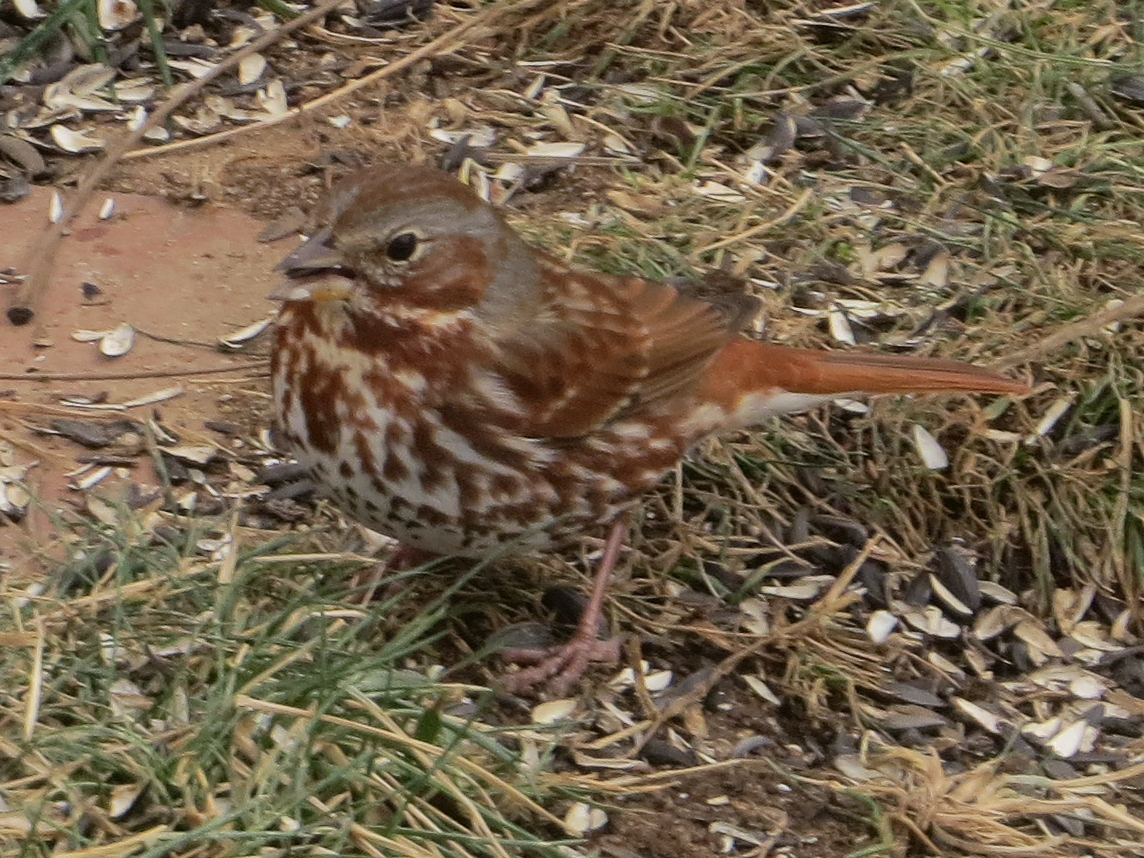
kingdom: Animalia
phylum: Chordata
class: Aves
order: Passeriformes
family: Passerellidae
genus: Passerella
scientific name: Passerella iliaca
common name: Fox sparrow
